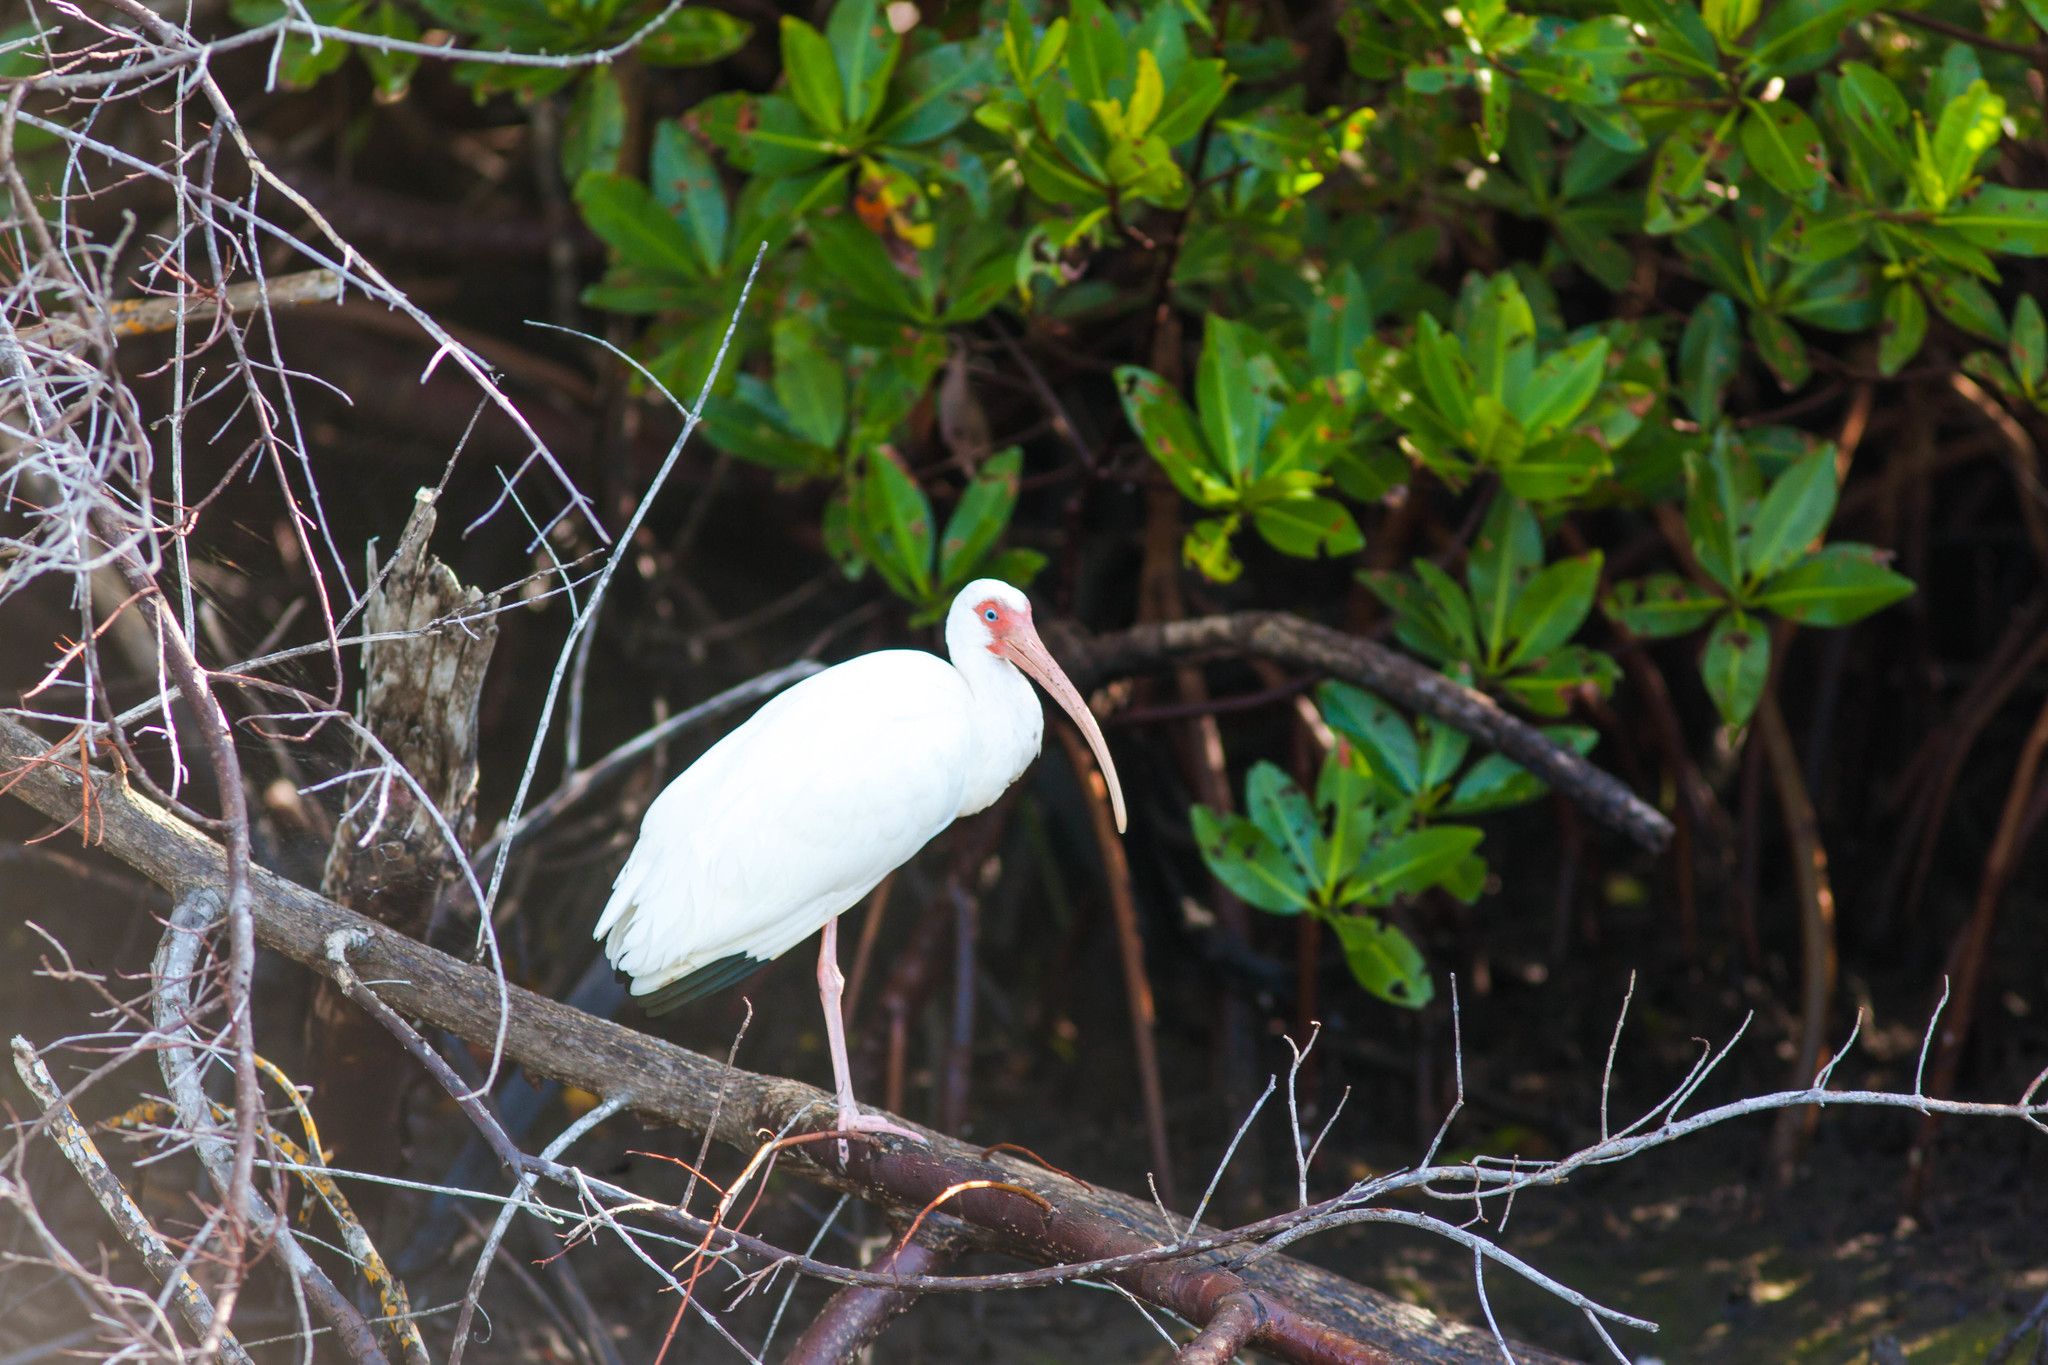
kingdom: Animalia
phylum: Chordata
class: Aves
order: Pelecaniformes
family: Threskiornithidae
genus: Eudocimus
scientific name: Eudocimus albus
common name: White ibis
